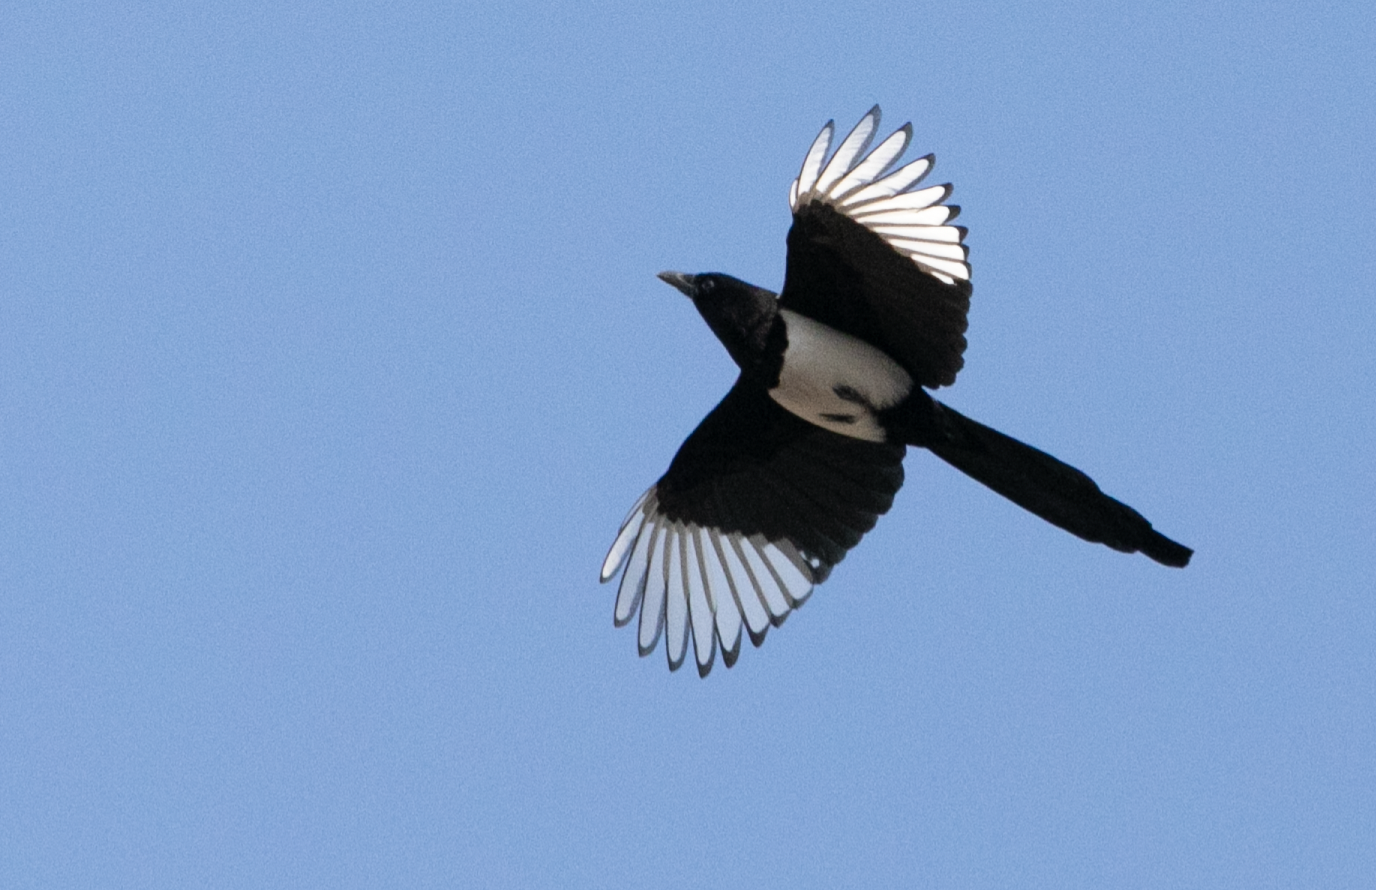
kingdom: Animalia
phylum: Chordata
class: Aves
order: Passeriformes
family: Corvidae
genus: Pica
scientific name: Pica pica
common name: Eurasian magpie
